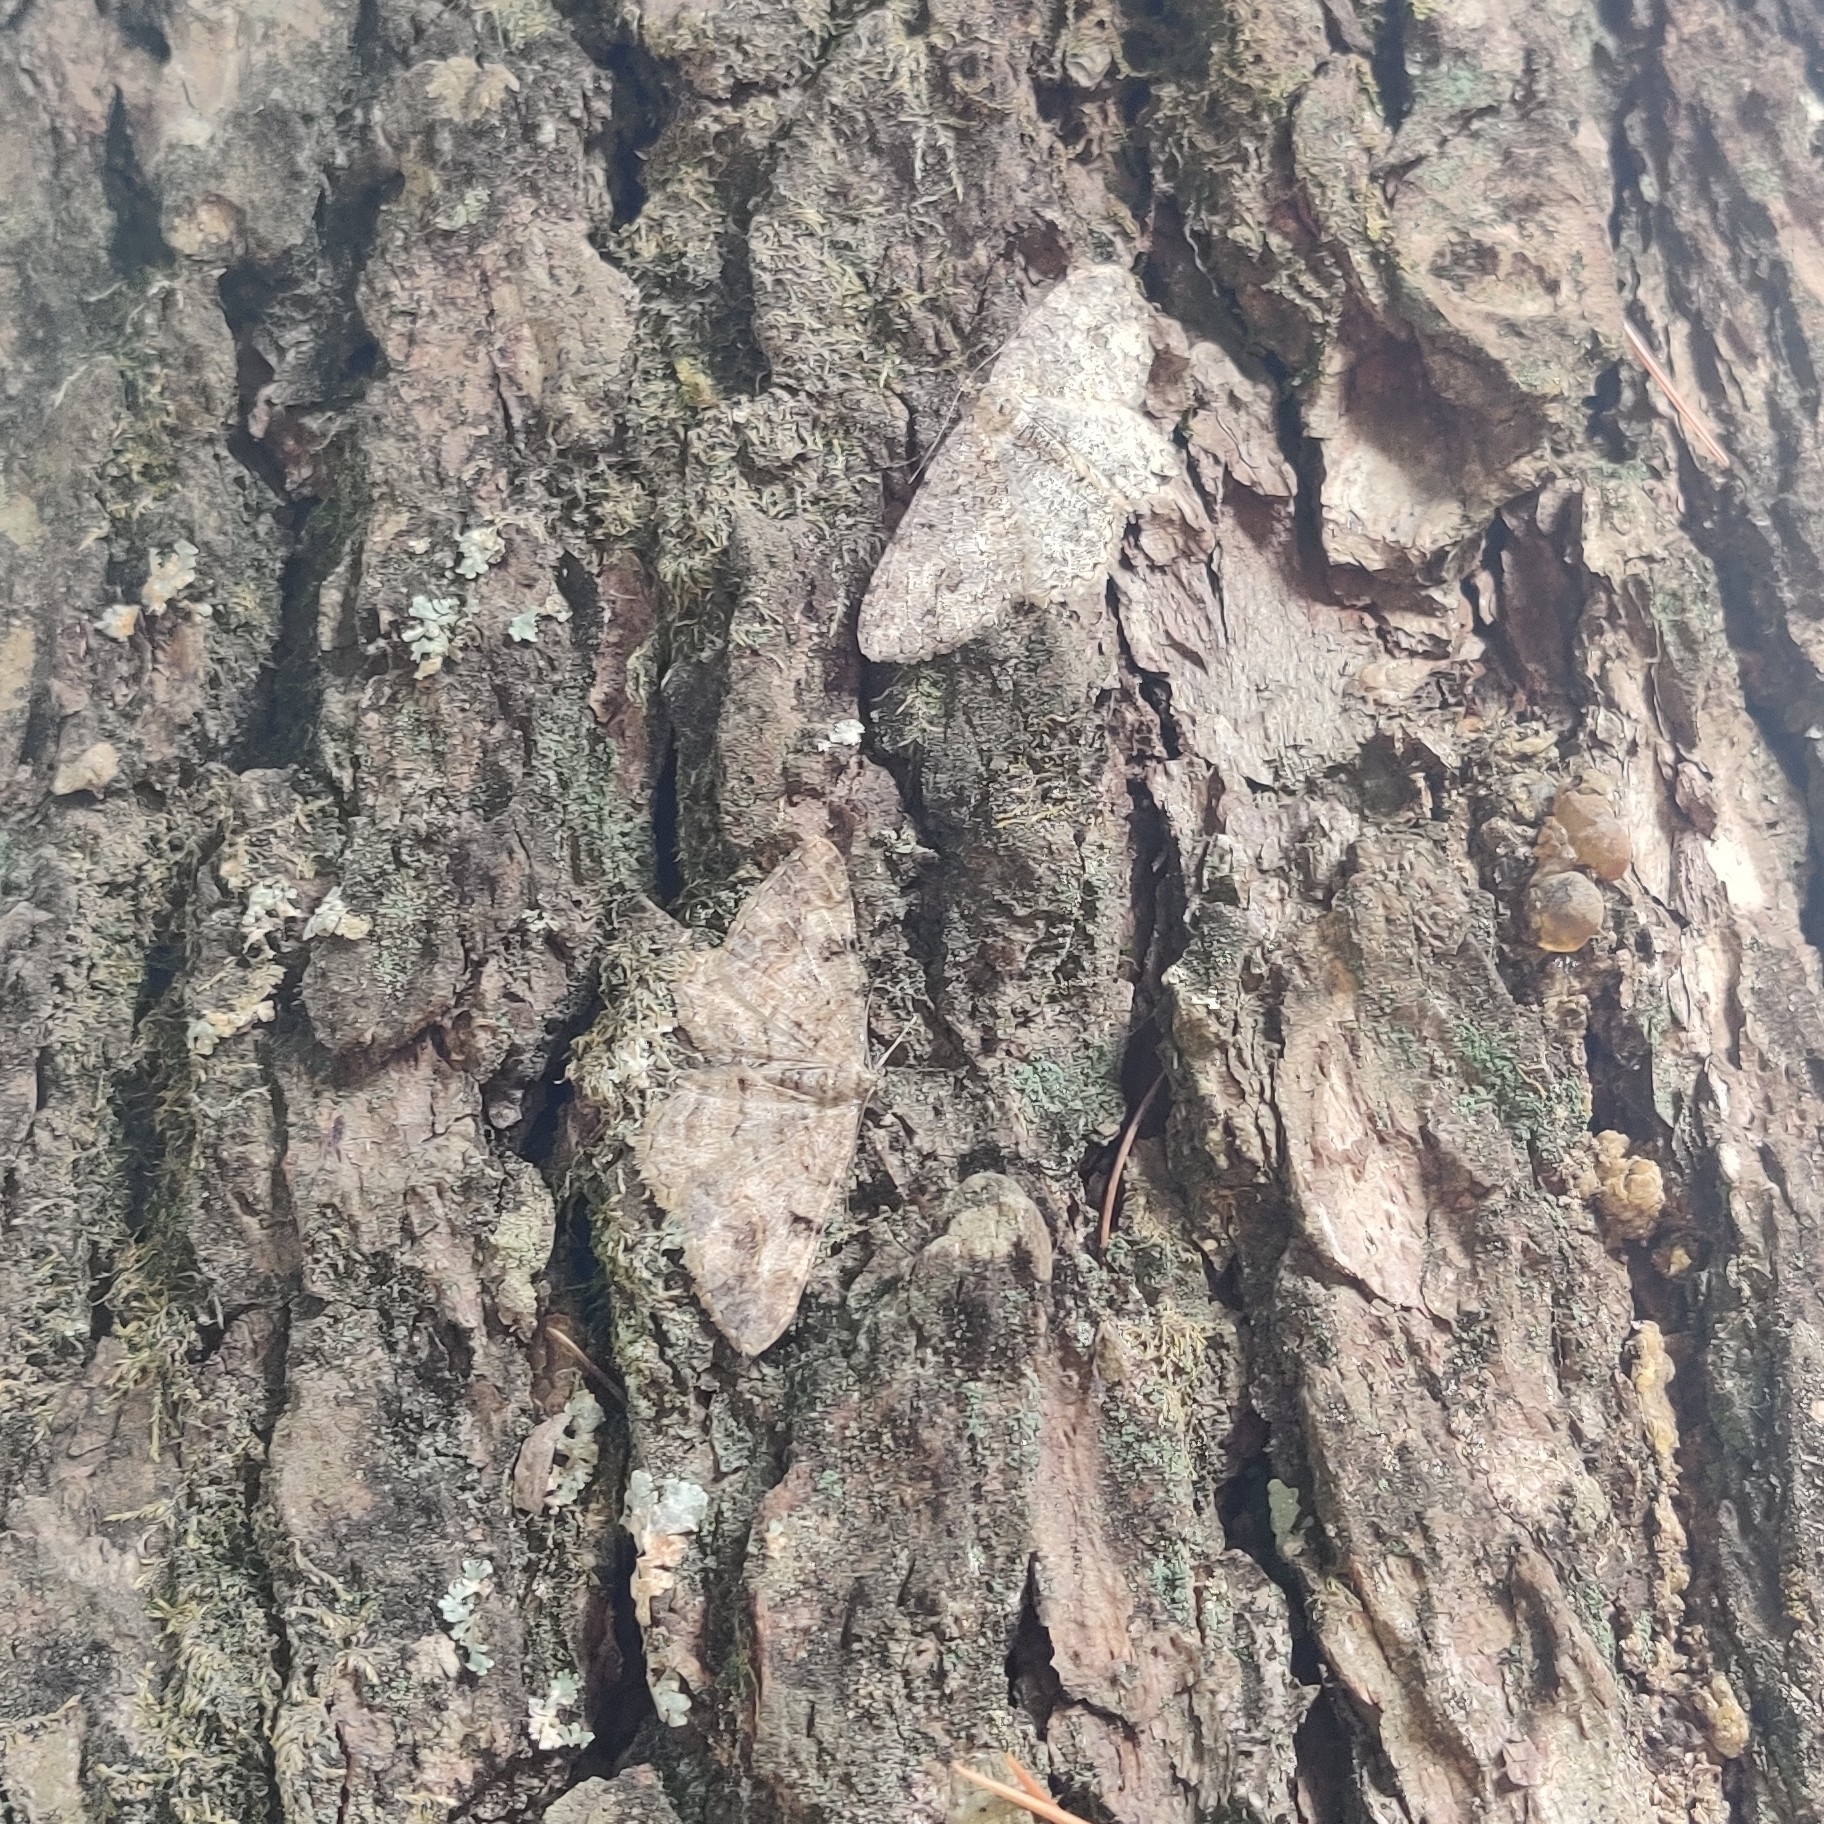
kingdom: Animalia
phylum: Arthropoda
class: Insecta
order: Lepidoptera
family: Geometridae
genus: Alcis
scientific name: Alcis perspicuata
